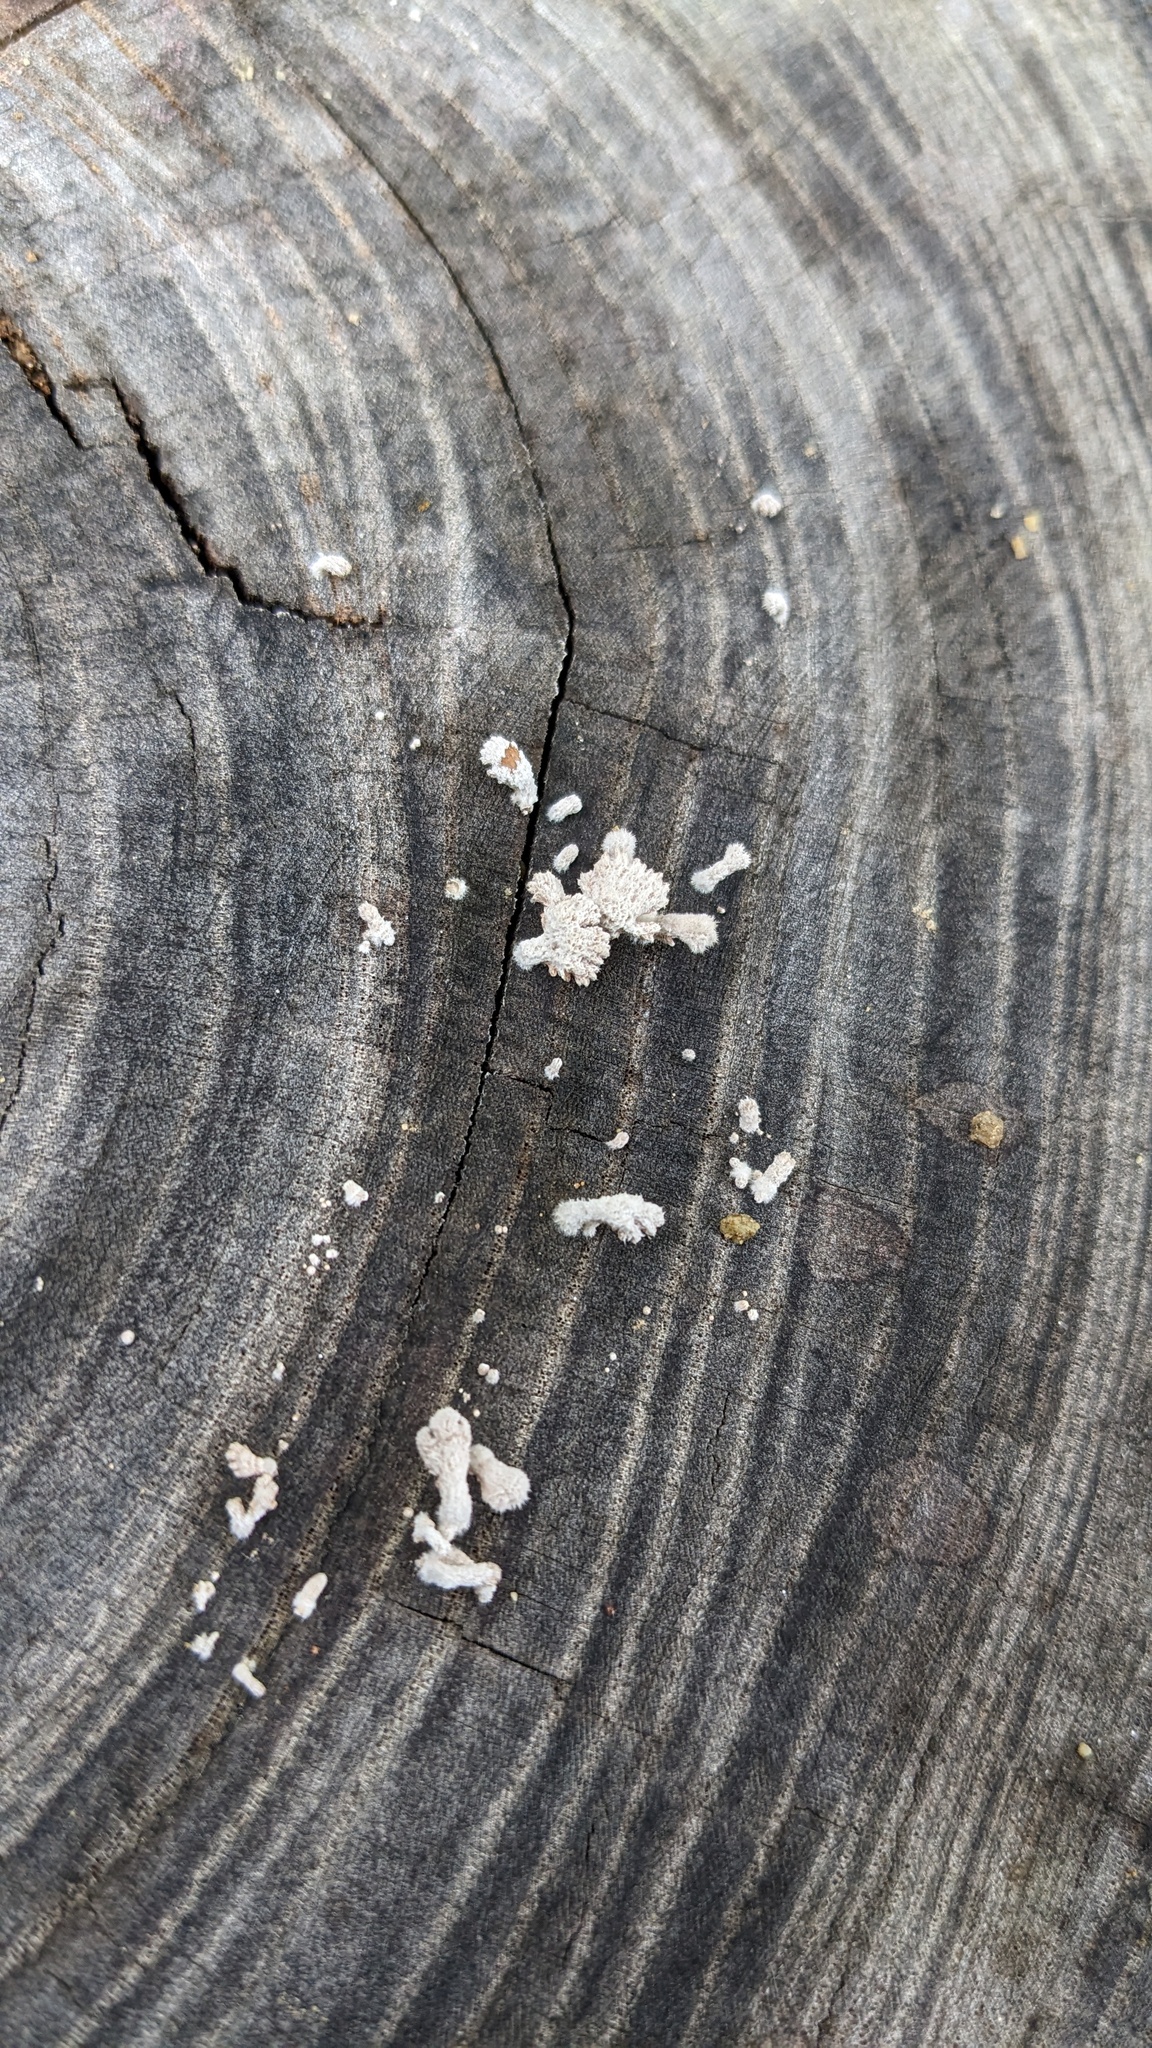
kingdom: Fungi
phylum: Basidiomycota
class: Agaricomycetes
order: Agaricales
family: Schizophyllaceae
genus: Schizophyllum
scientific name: Schizophyllum commune
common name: Common porecrust
